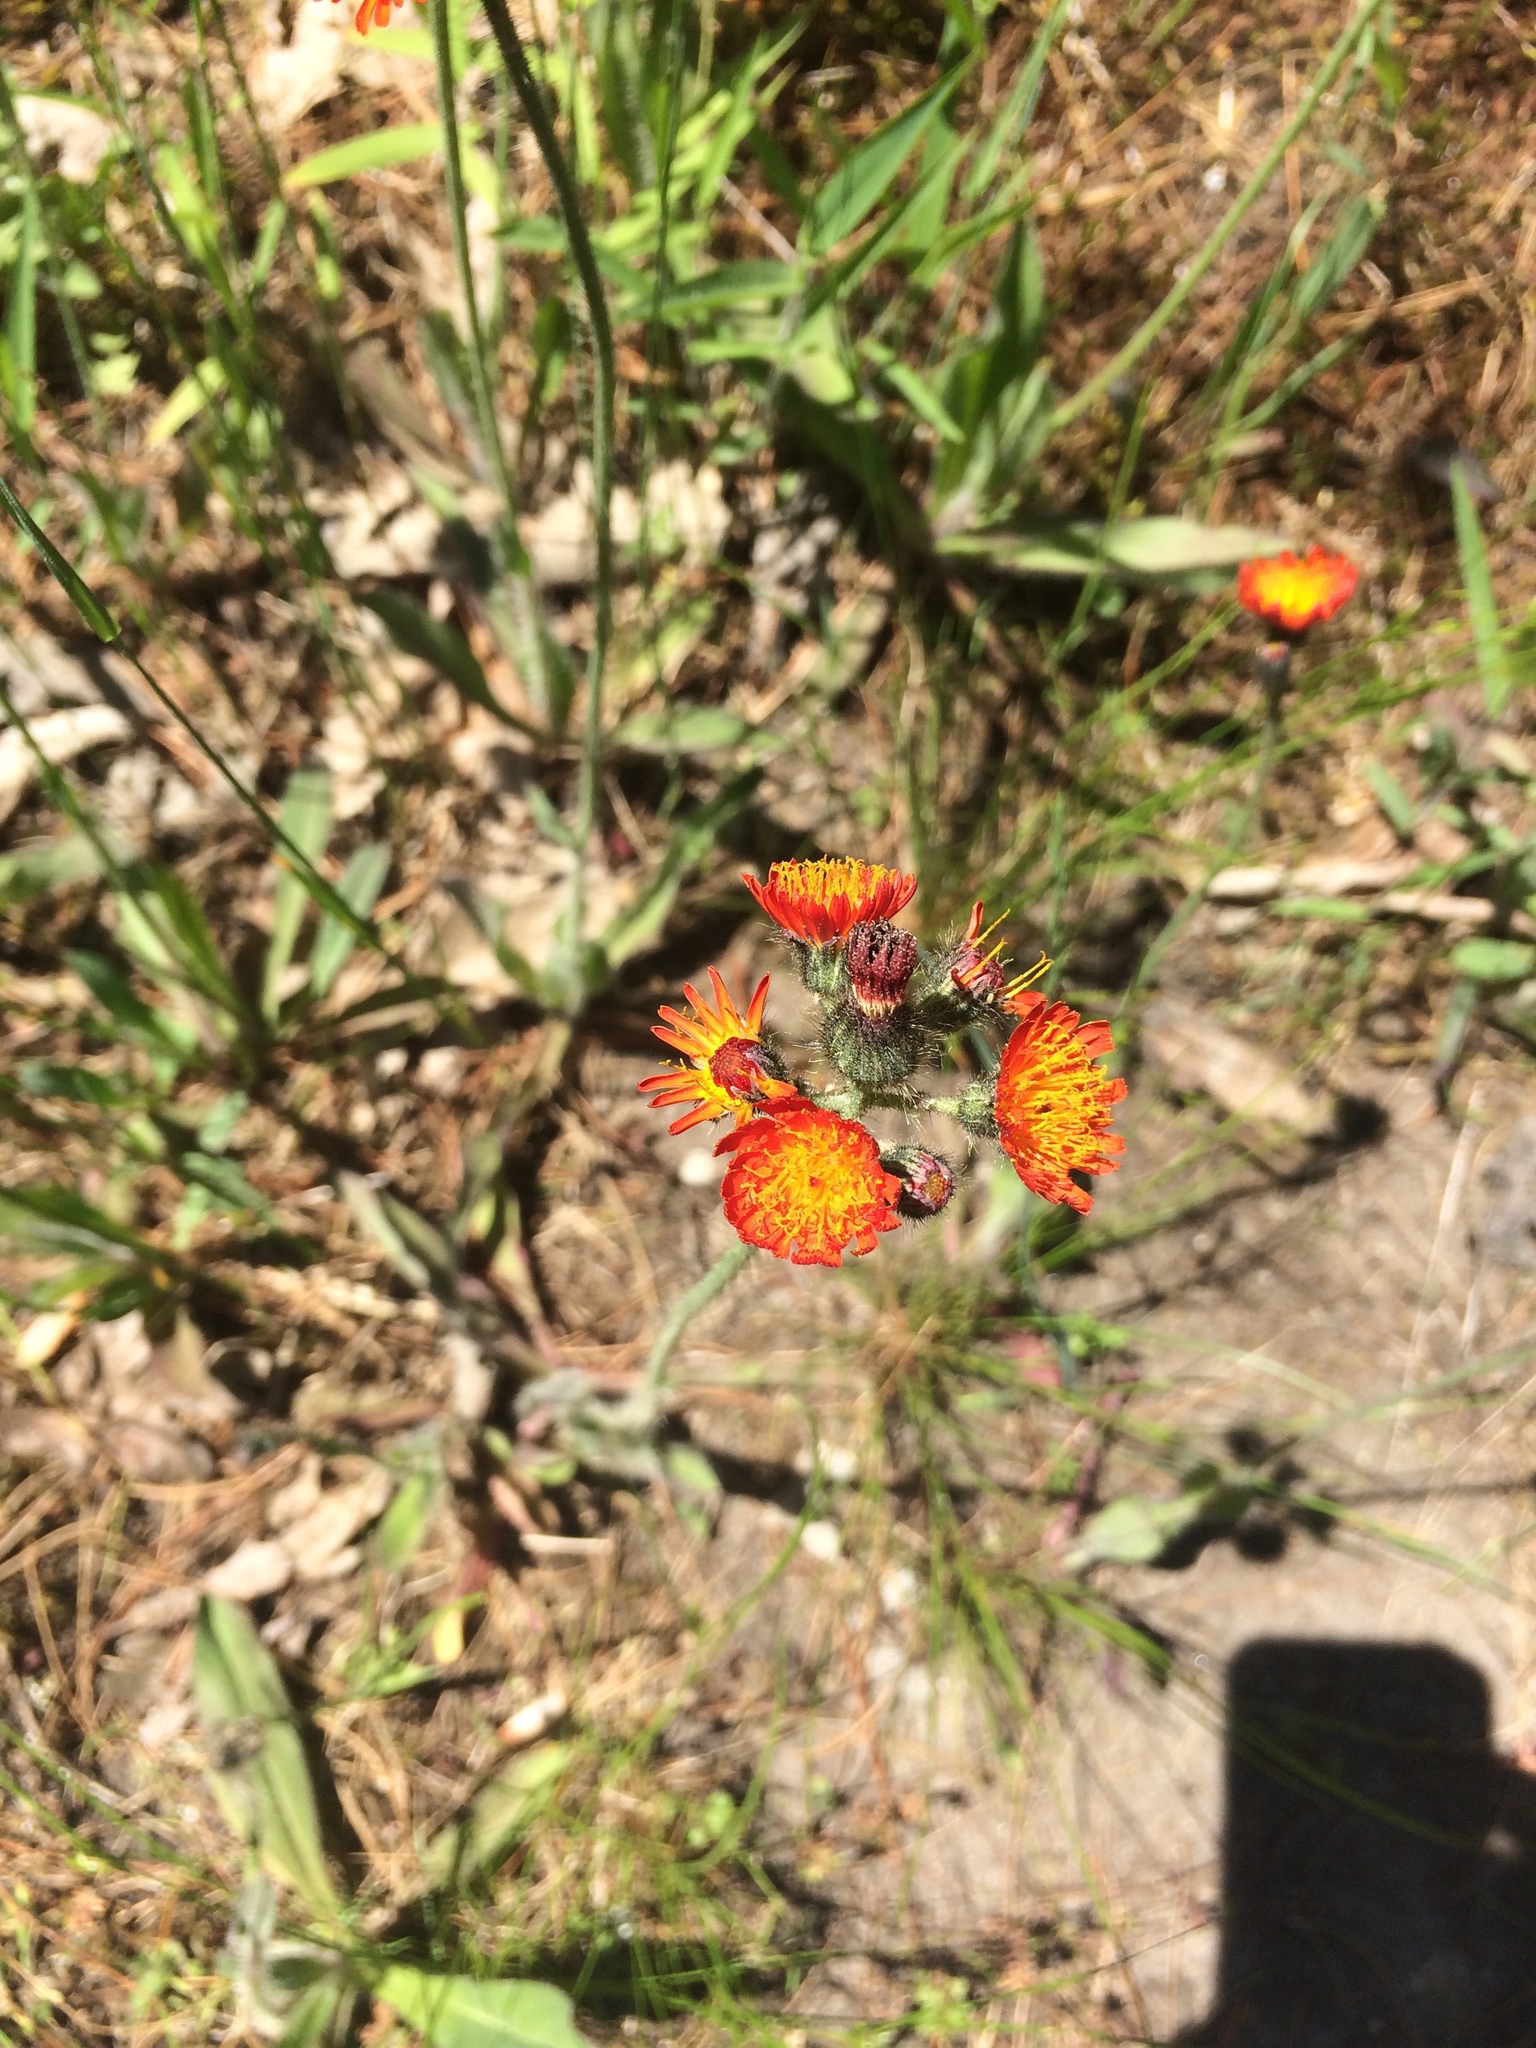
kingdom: Plantae
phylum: Tracheophyta
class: Magnoliopsida
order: Asterales
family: Asteraceae
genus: Pilosella
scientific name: Pilosella aurantiaca
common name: Fox-and-cubs
